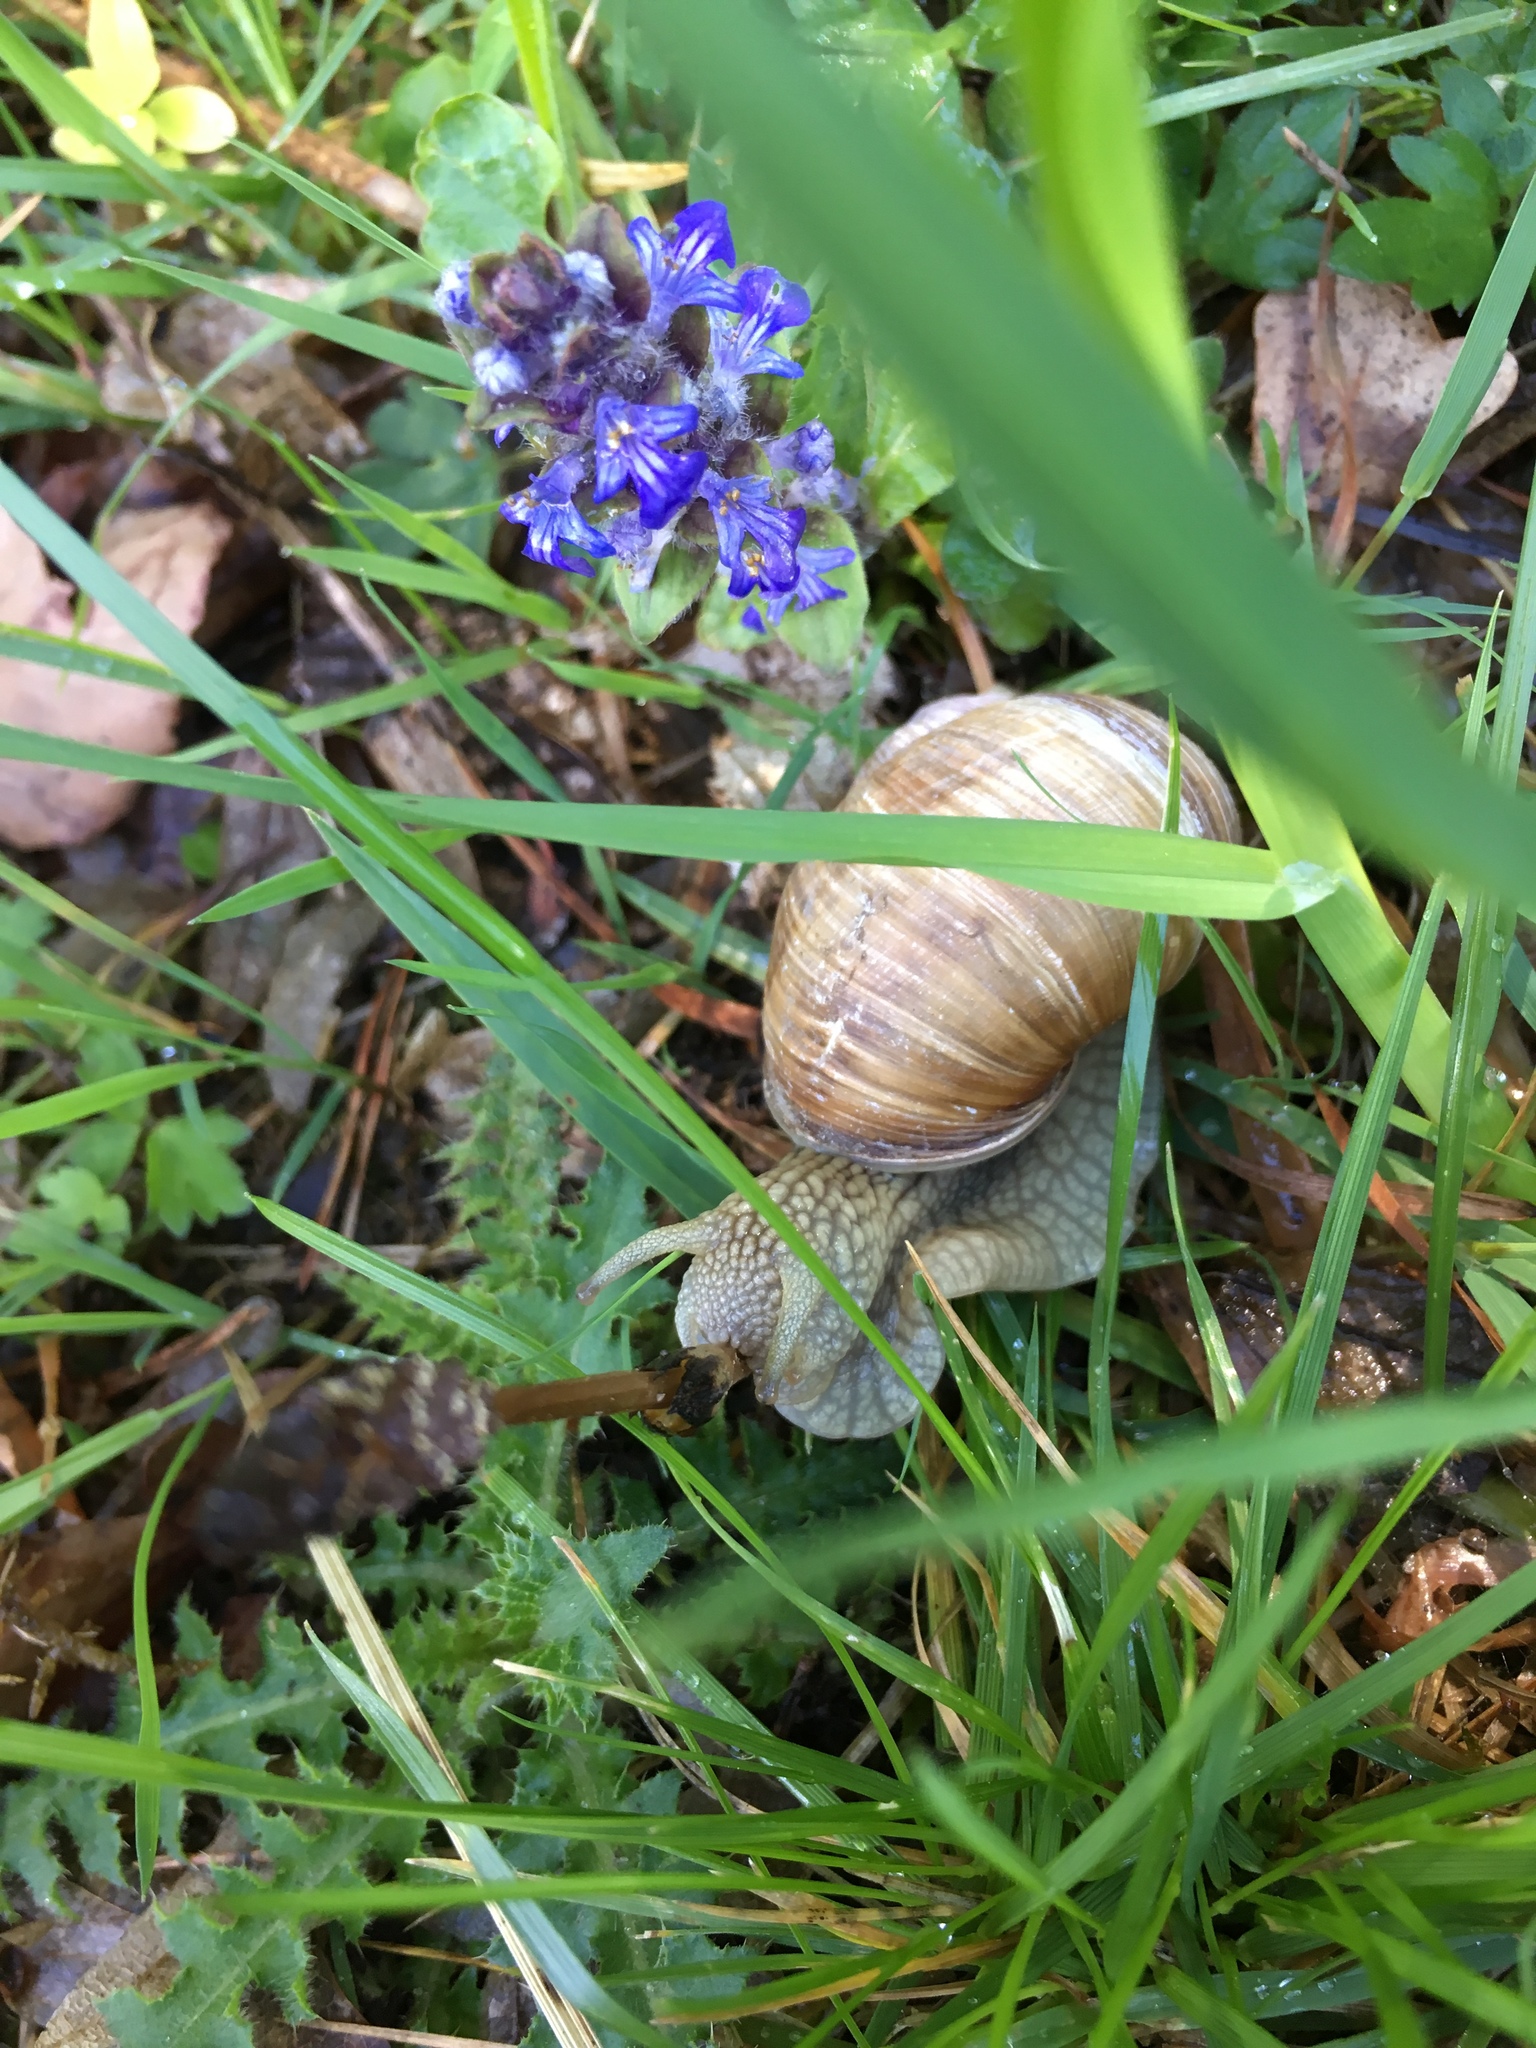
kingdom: Animalia
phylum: Mollusca
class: Gastropoda
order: Stylommatophora
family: Helicidae
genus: Helix
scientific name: Helix pomatia
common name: Roman snail
